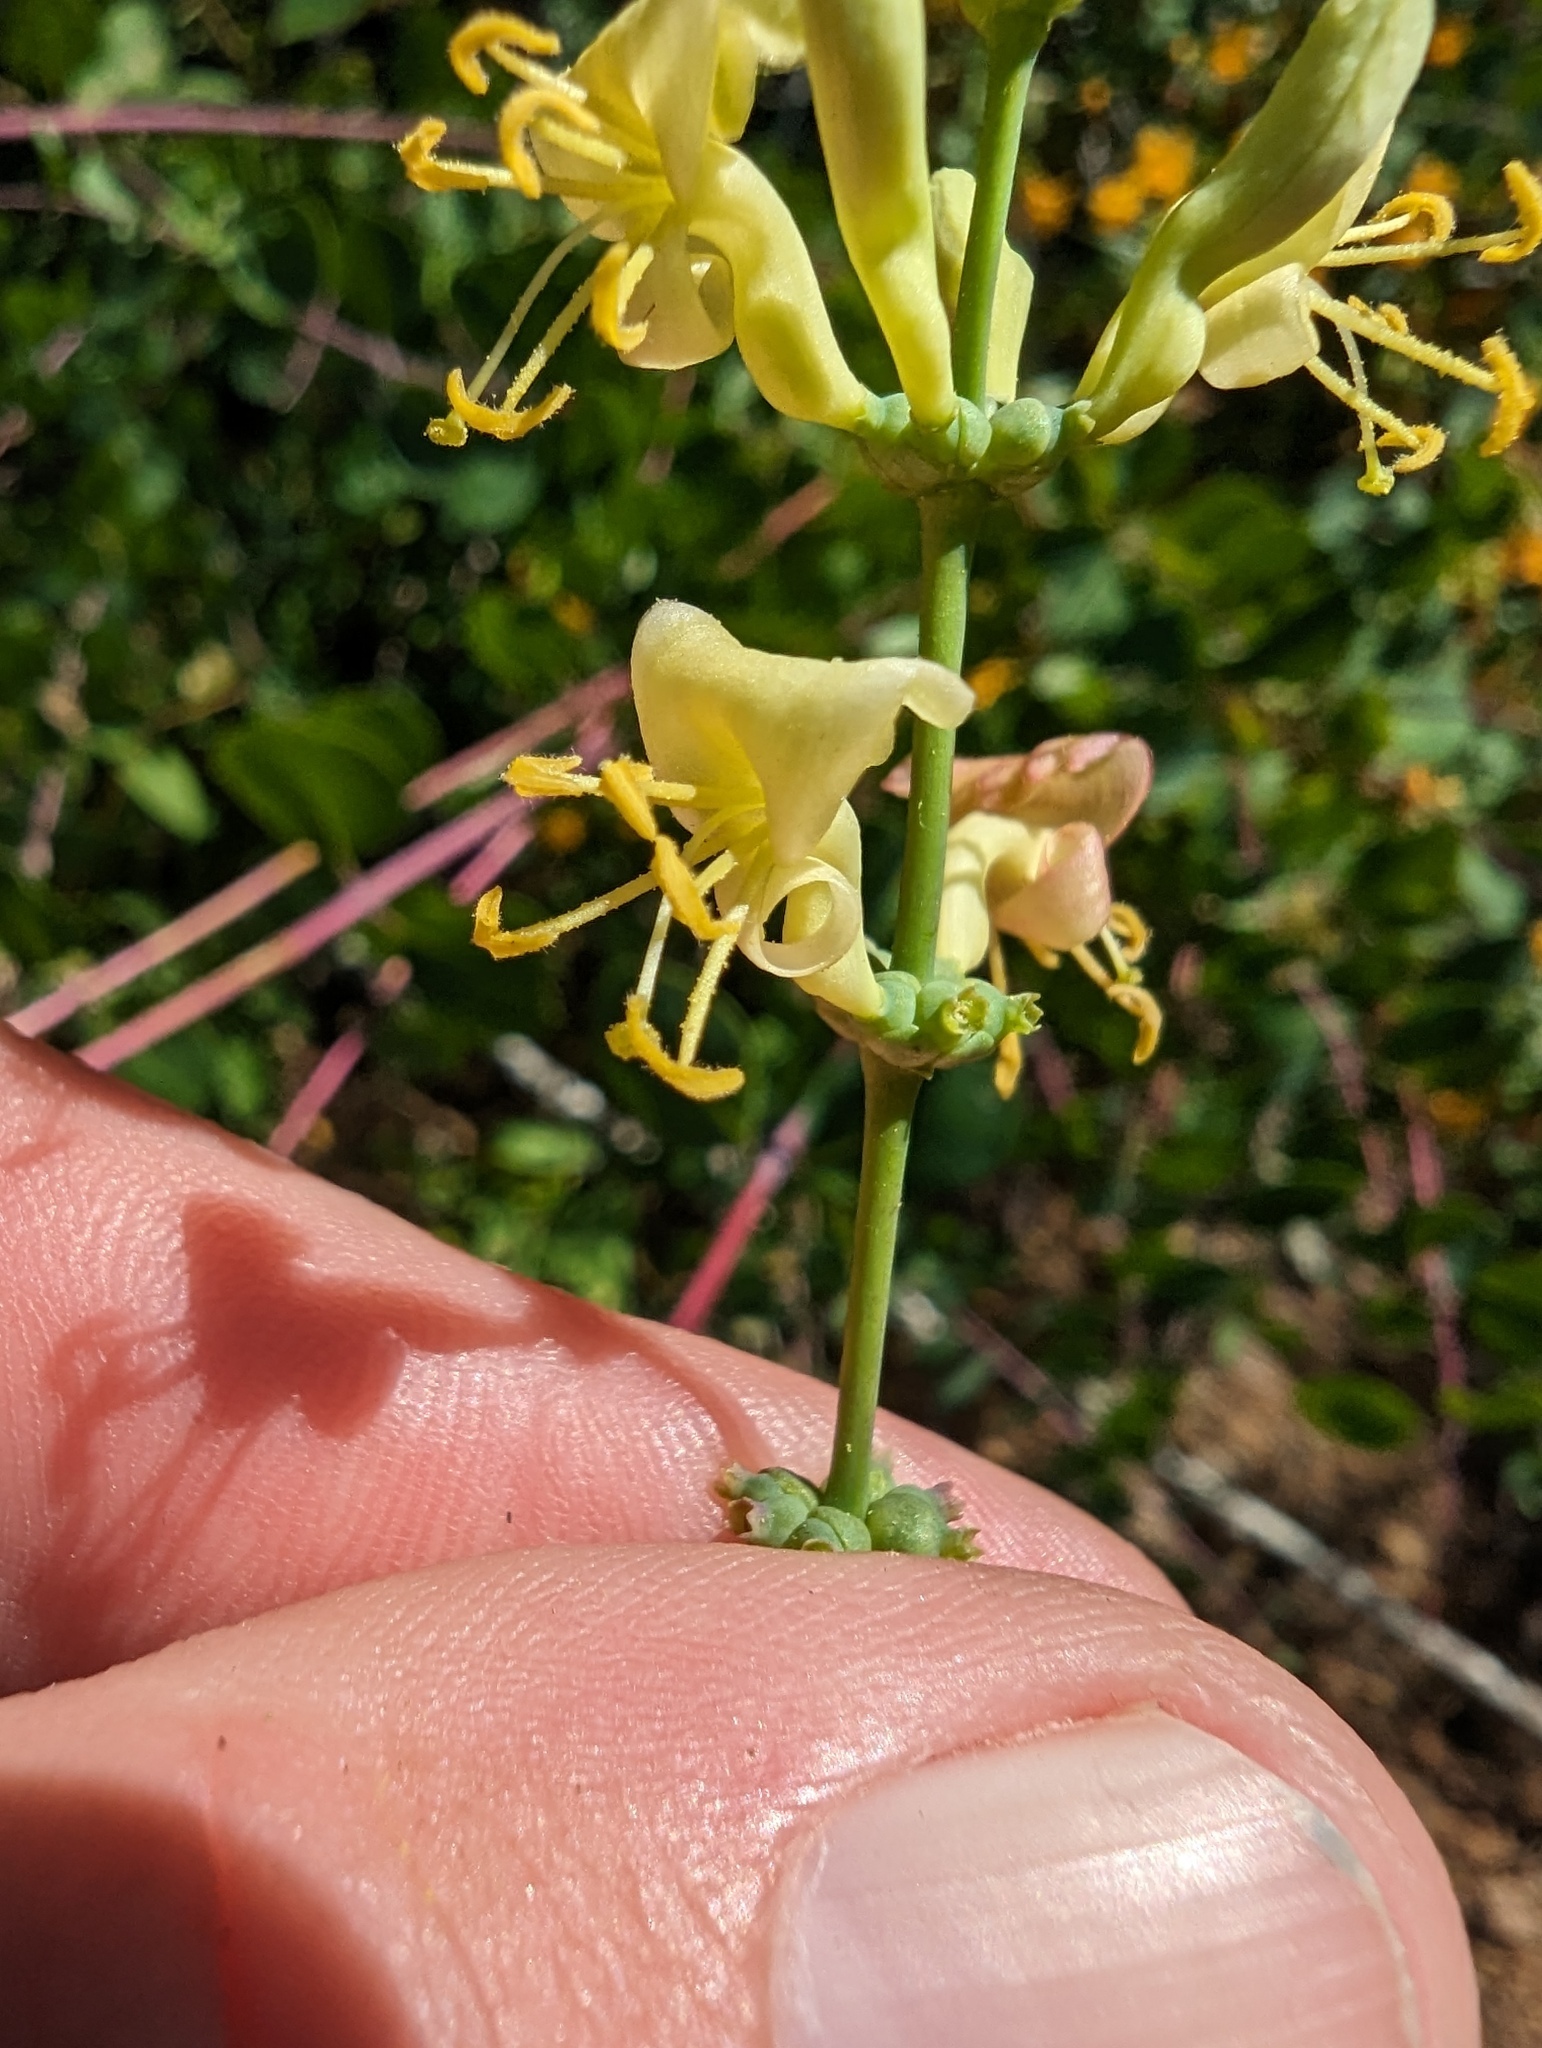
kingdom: Plantae
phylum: Tracheophyta
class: Magnoliopsida
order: Dipsacales
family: Caprifoliaceae
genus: Lonicera
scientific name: Lonicera subspicata
